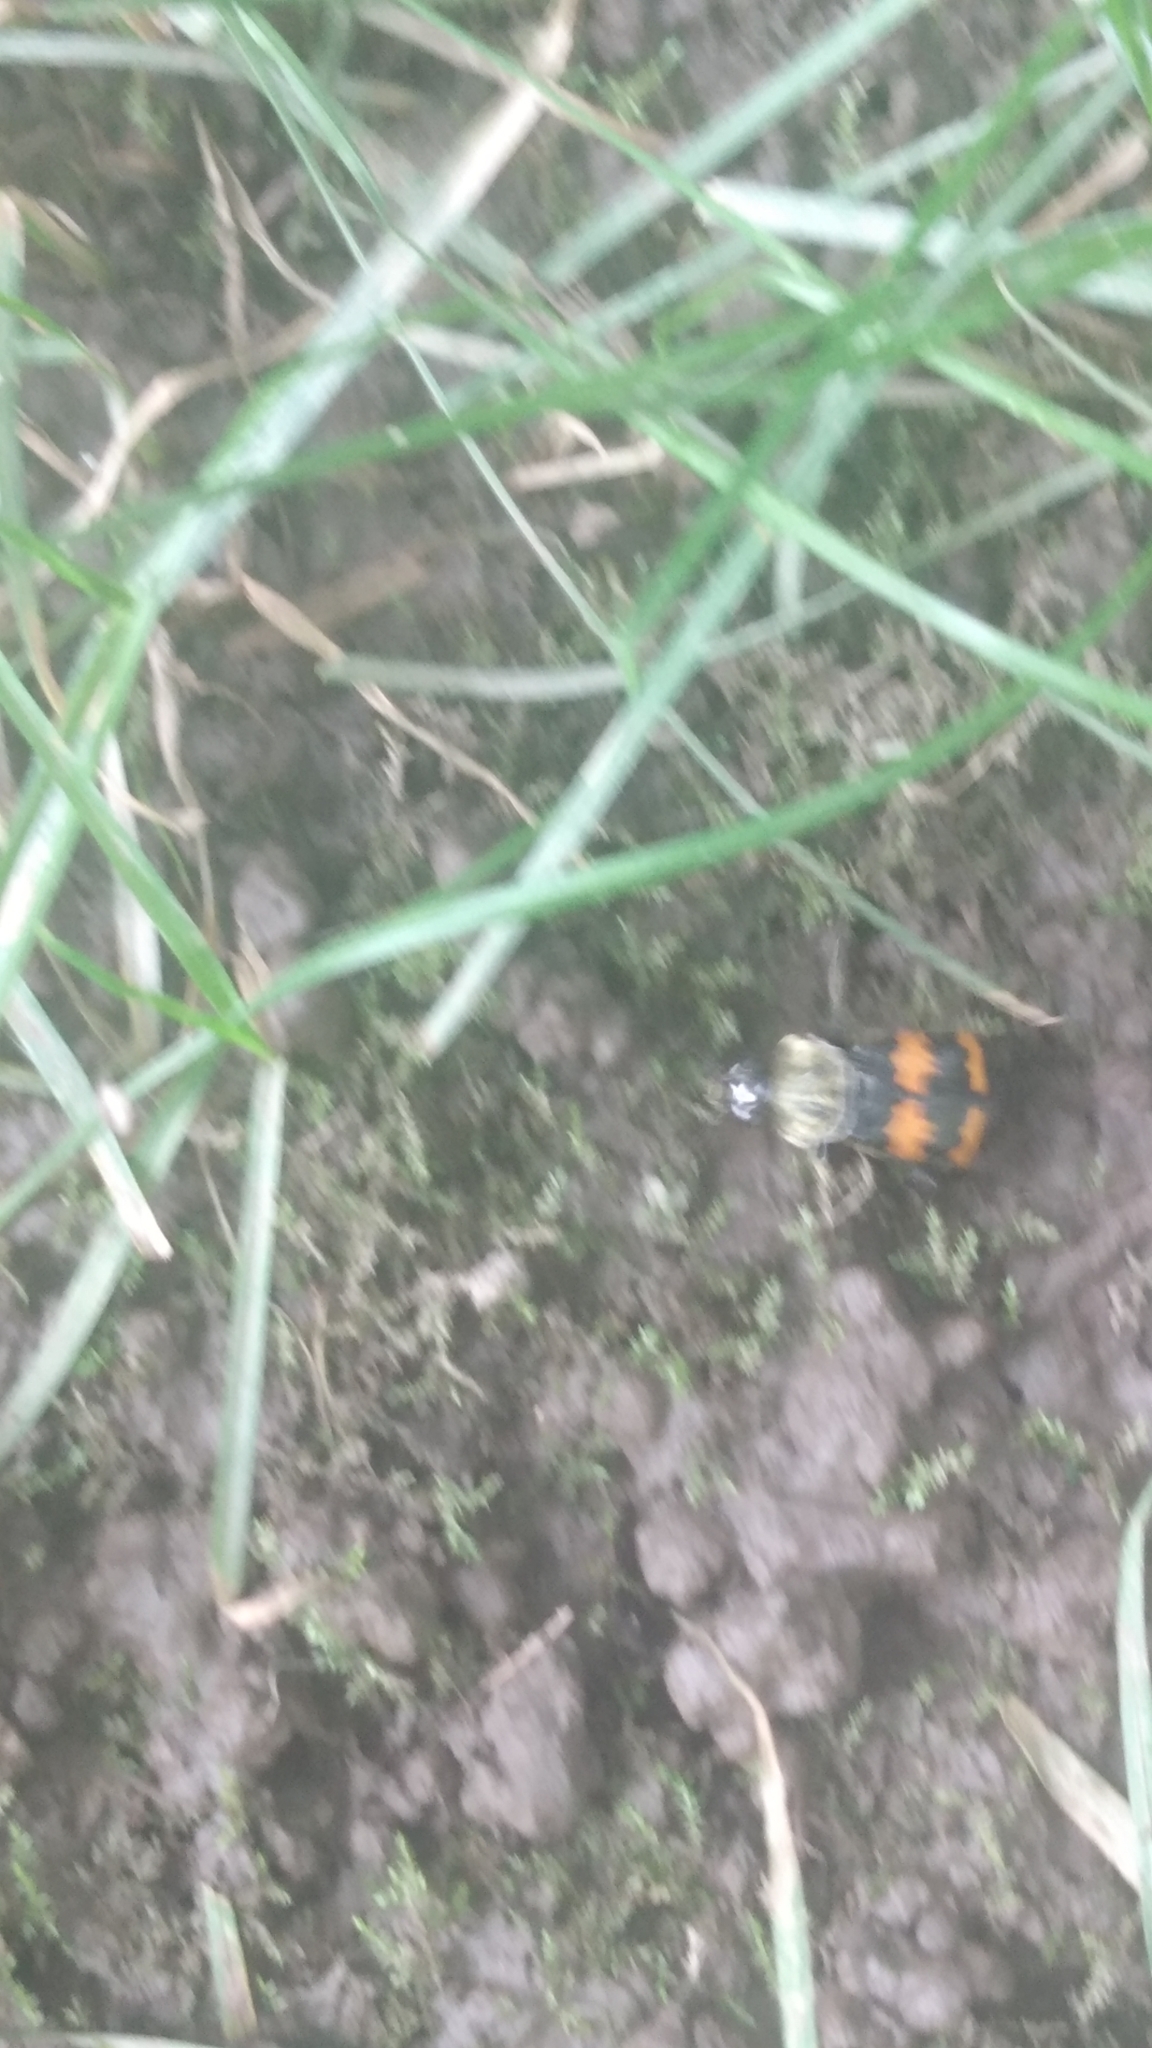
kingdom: Animalia
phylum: Arthropoda
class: Insecta
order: Coleoptera
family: Staphylinidae
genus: Nicrophorus
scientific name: Nicrophorus tomentosus
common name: Tomentose burying beetle
